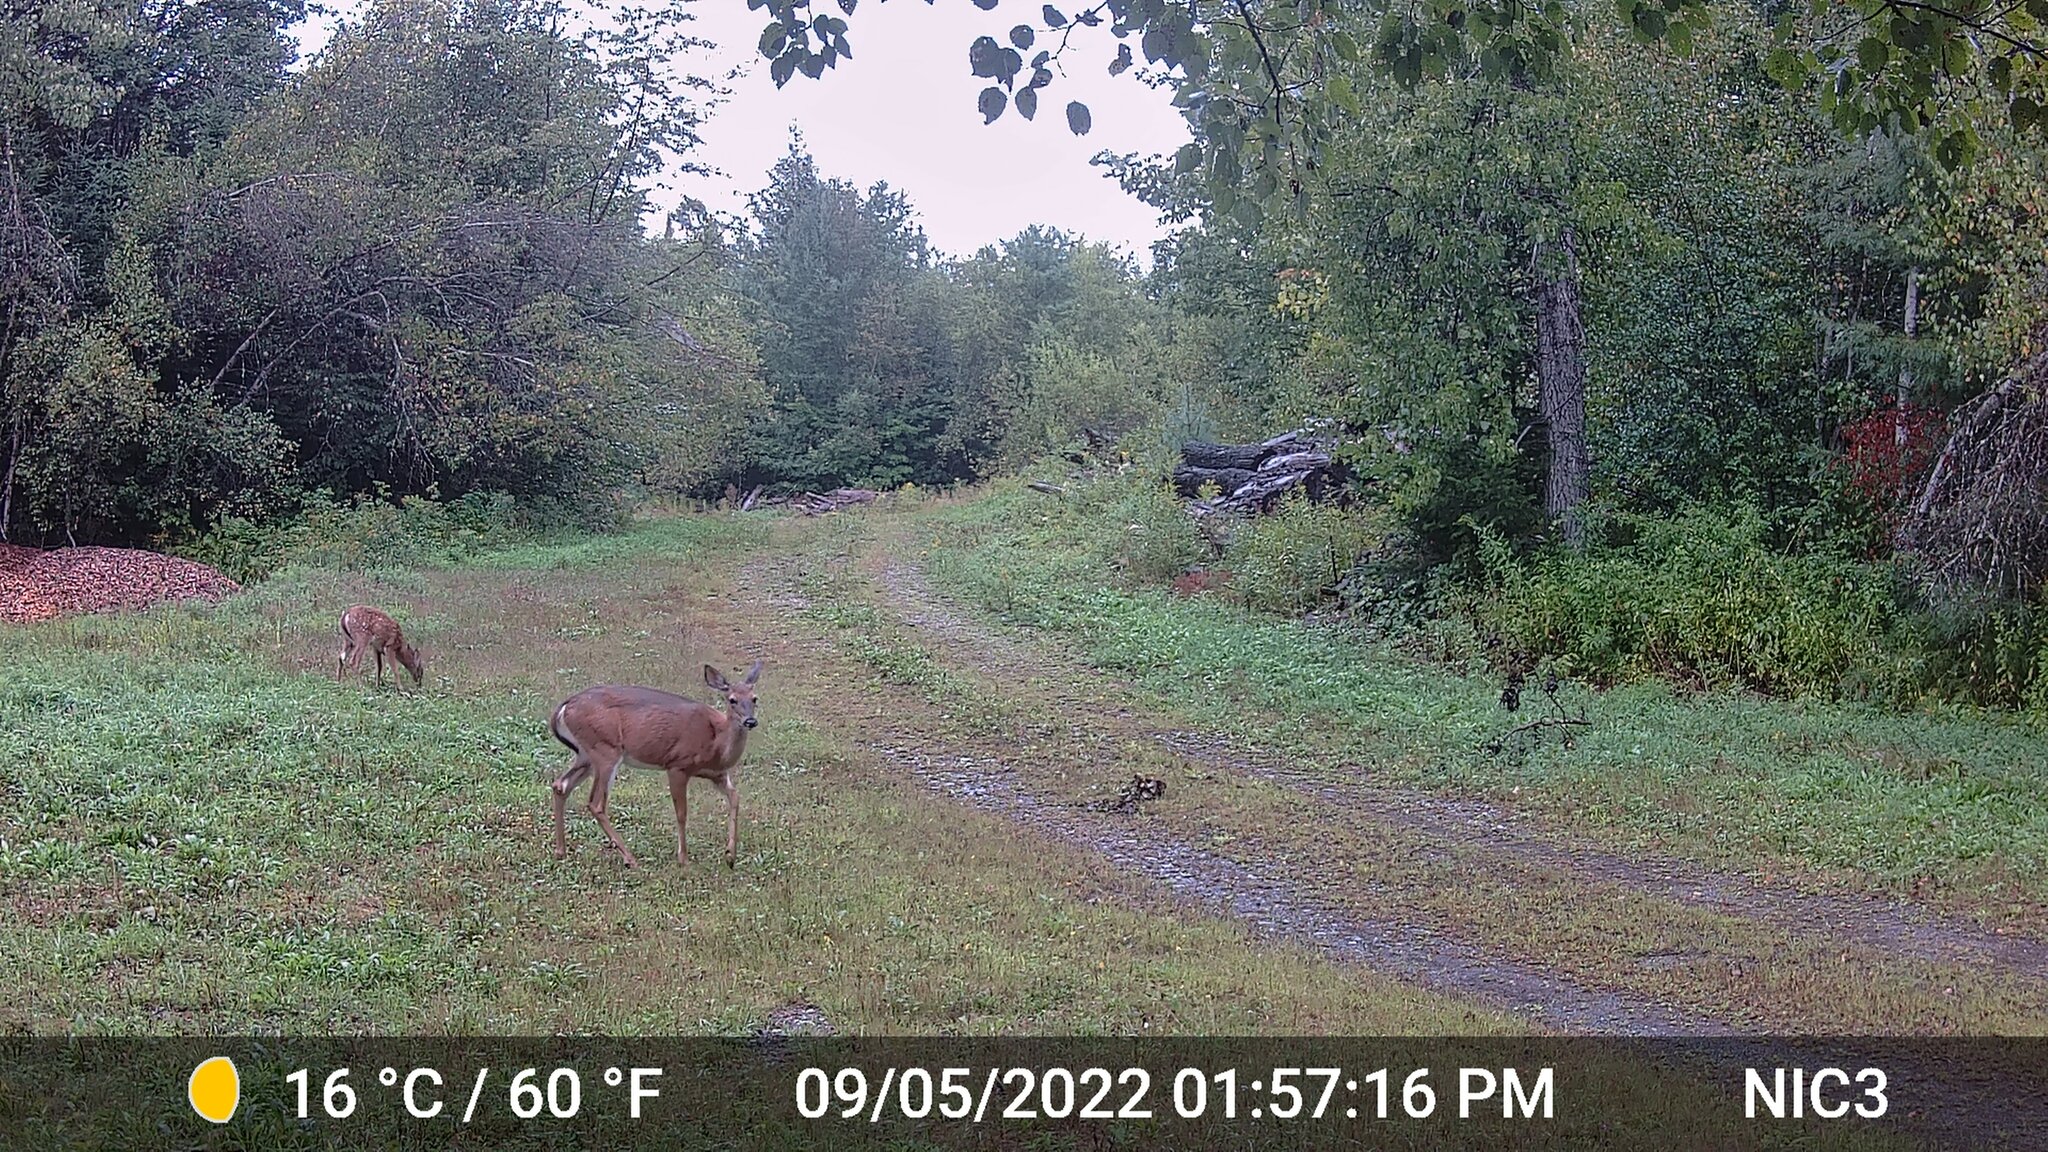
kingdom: Animalia
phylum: Chordata
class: Mammalia
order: Artiodactyla
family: Cervidae
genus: Odocoileus
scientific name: Odocoileus virginianus
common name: White-tailed deer
